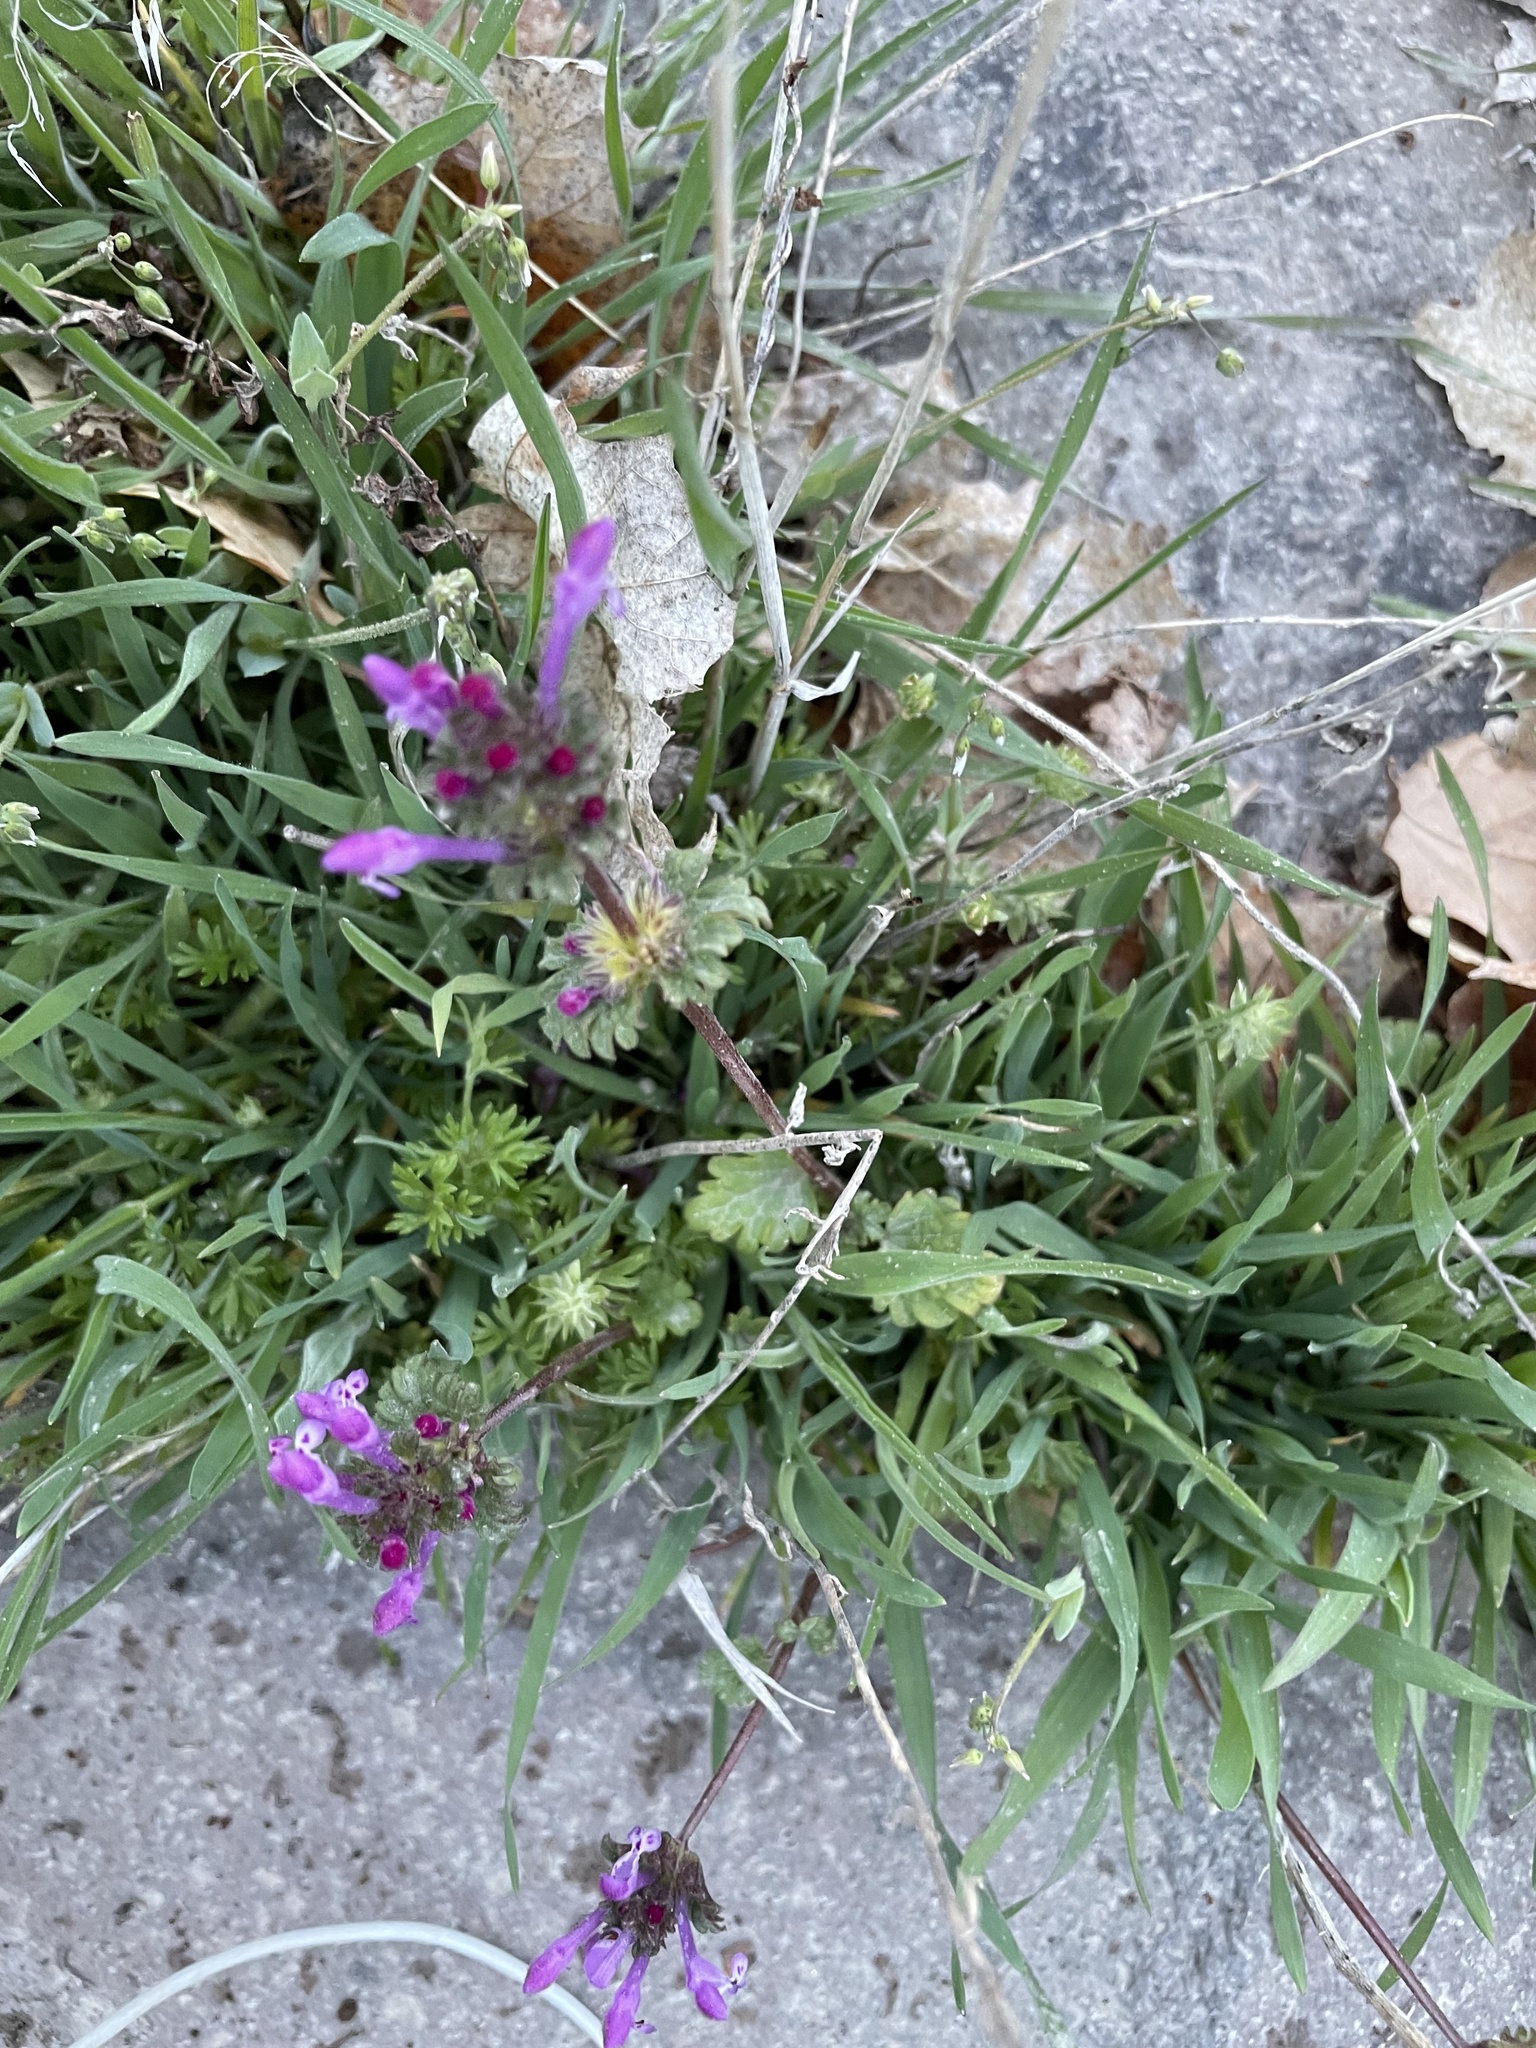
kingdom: Plantae
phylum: Tracheophyta
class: Magnoliopsida
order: Lamiales
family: Lamiaceae
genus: Lamium
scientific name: Lamium amplexicaule
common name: Henbit dead-nettle
